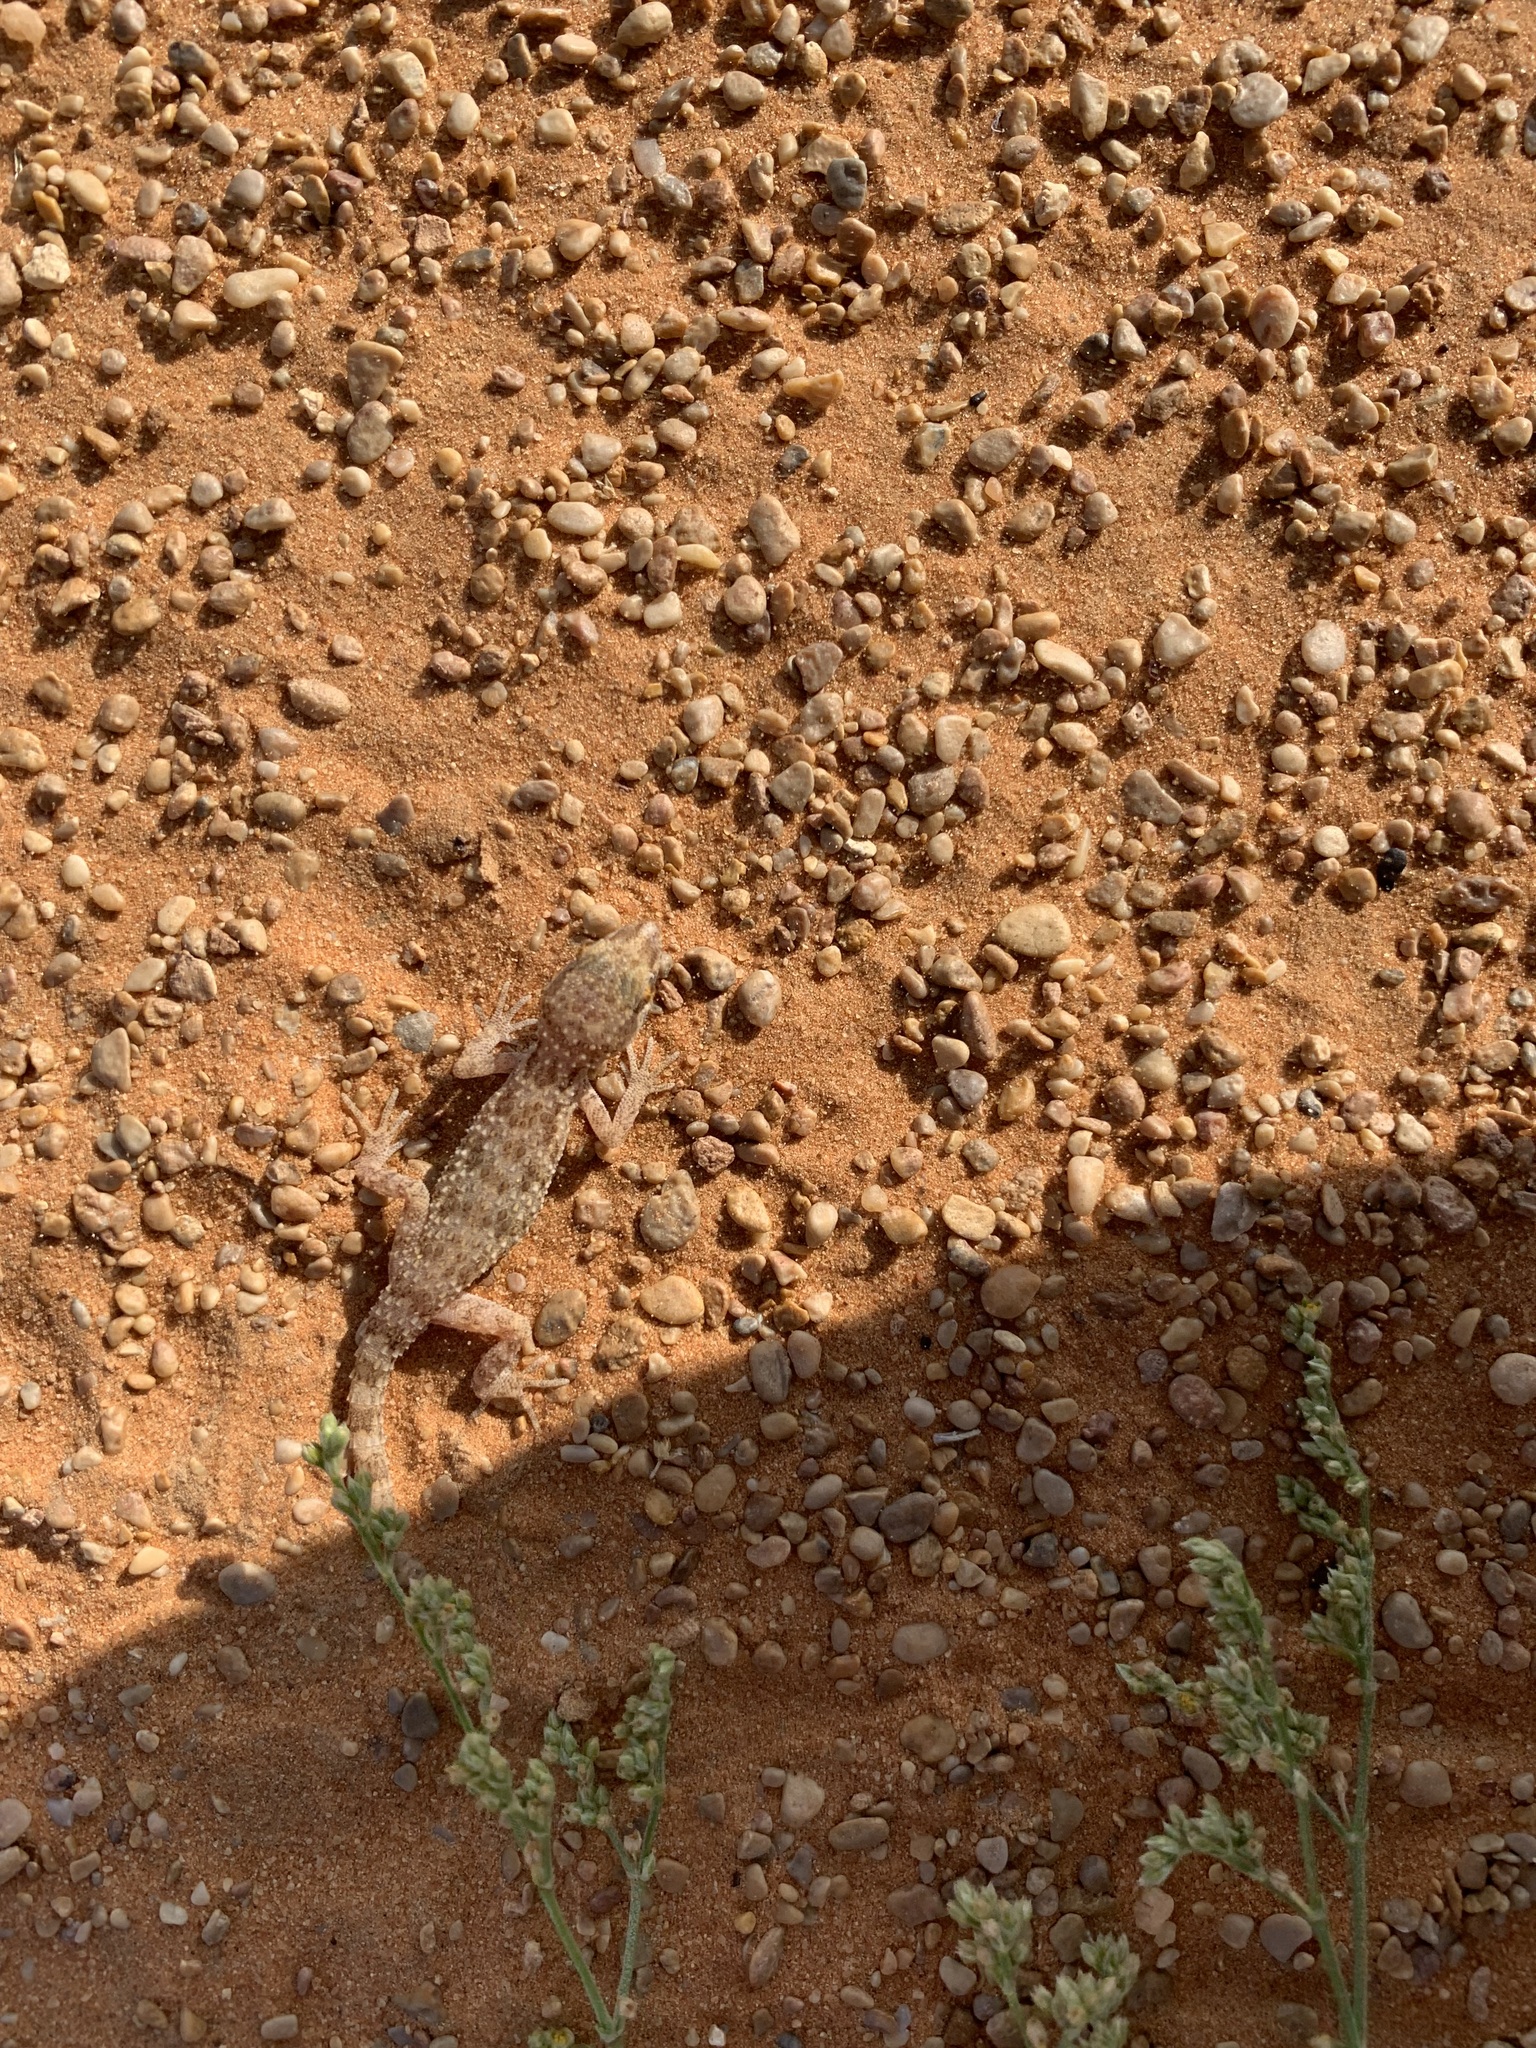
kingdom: Animalia
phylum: Chordata
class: Squamata
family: Gekkonidae
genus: Bunopus
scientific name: Bunopus tuberculatus
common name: Southern tuberculated gecko
